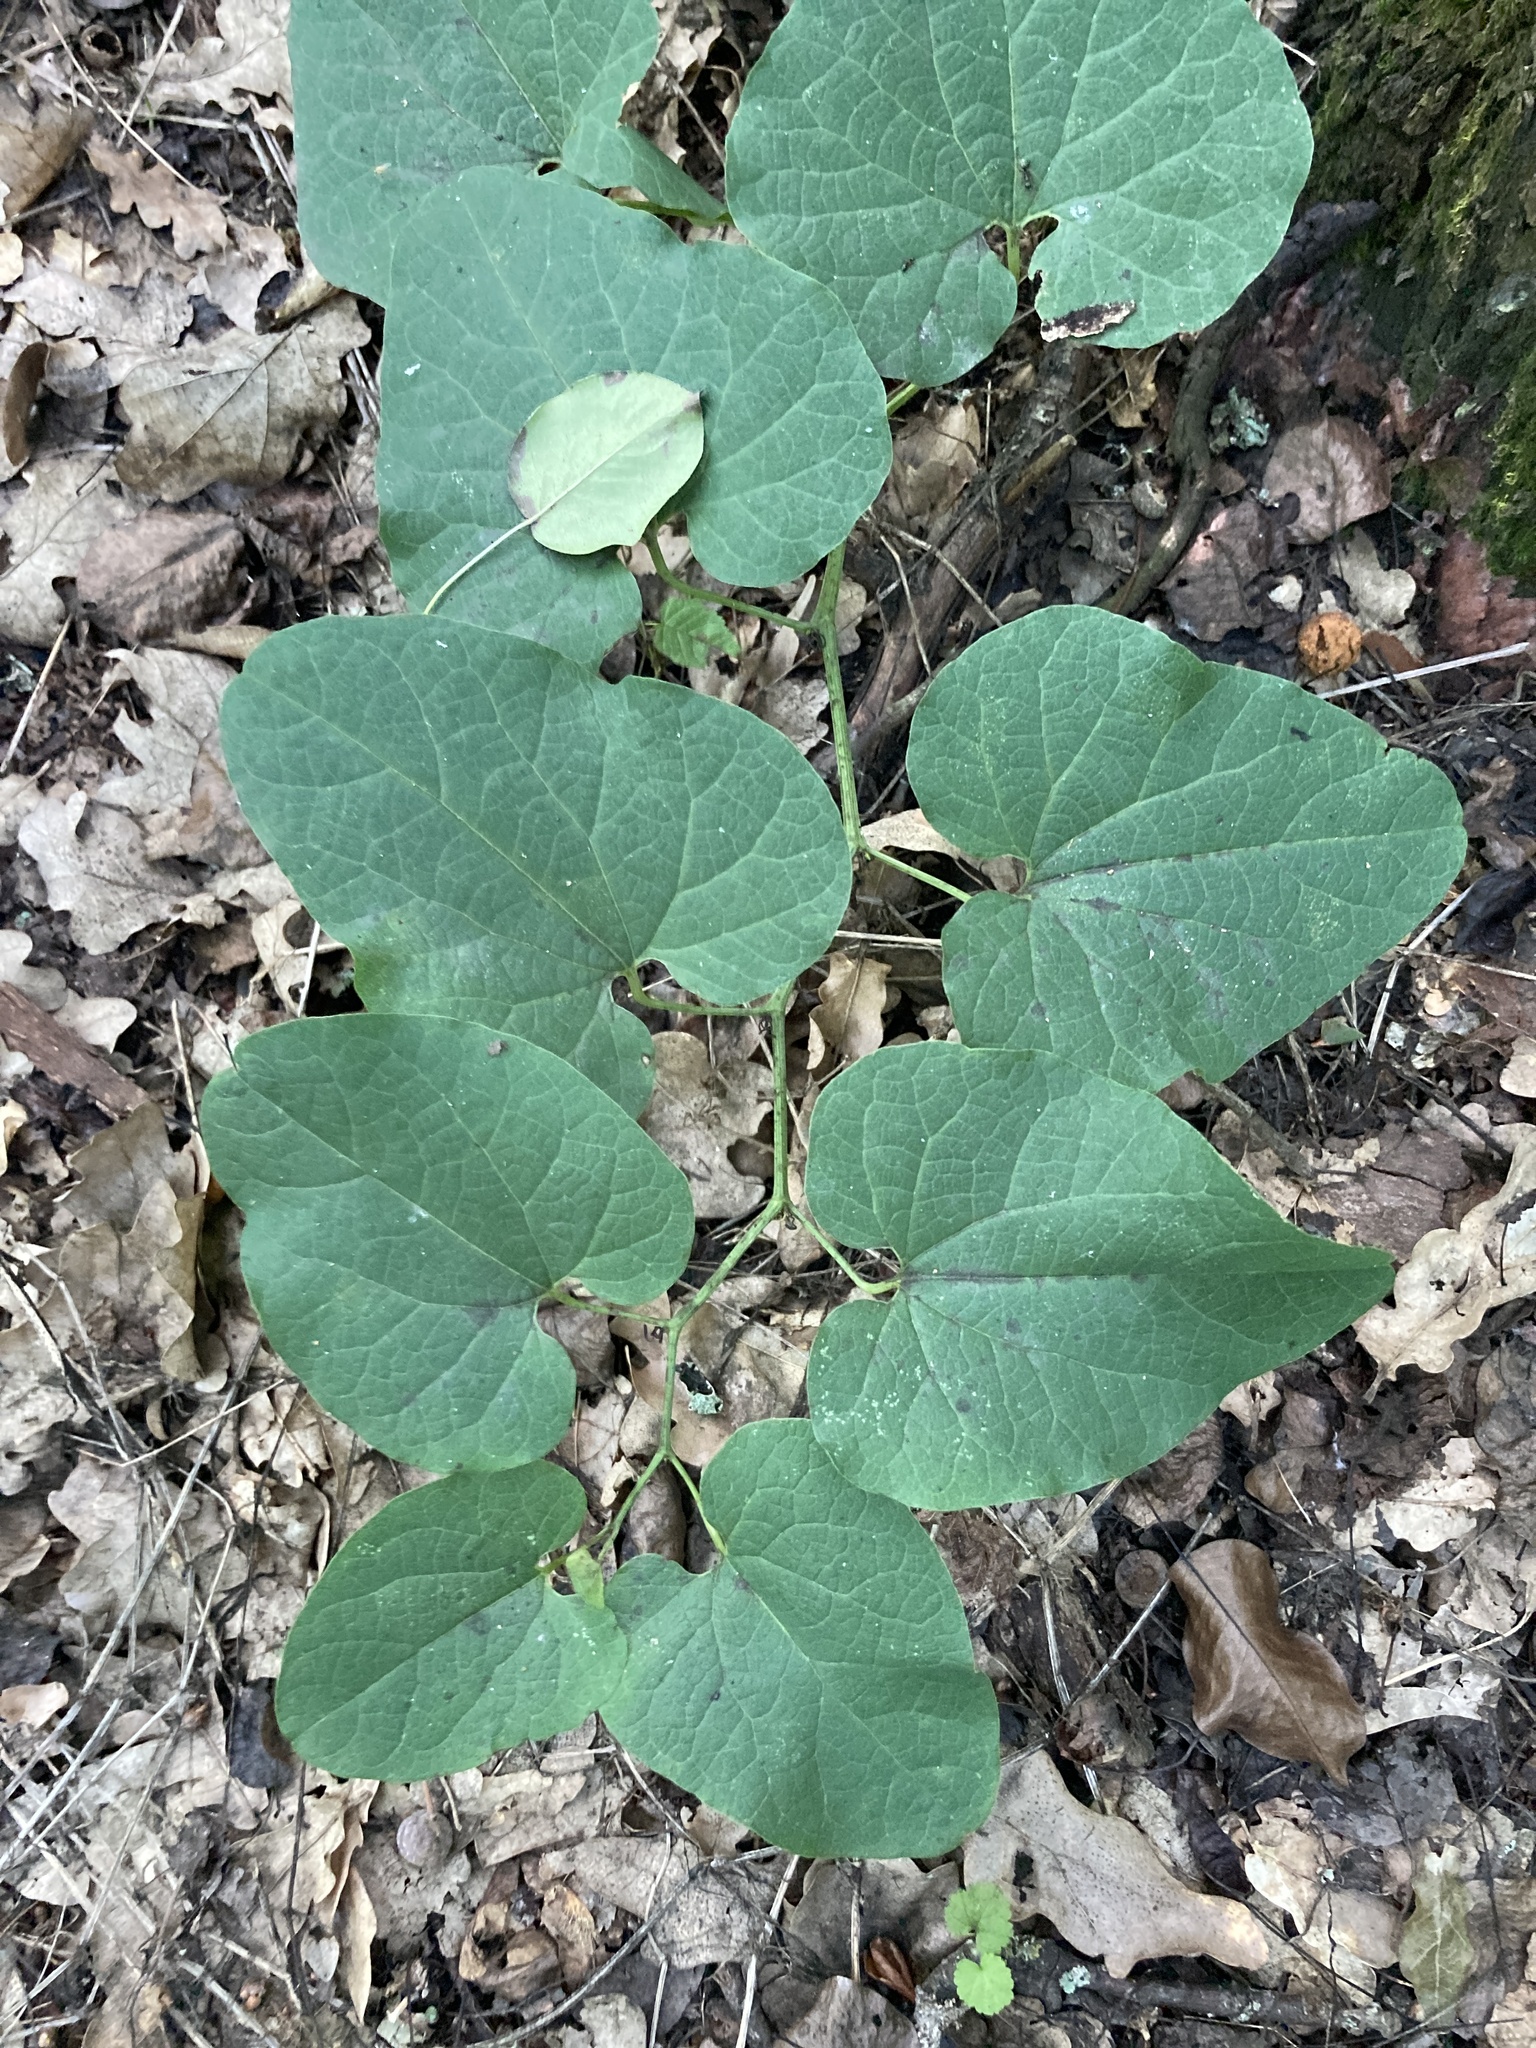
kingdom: Plantae
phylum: Tracheophyta
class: Magnoliopsida
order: Piperales
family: Aristolochiaceae
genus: Aristolochia
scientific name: Aristolochia clematitis
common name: Birthwort
